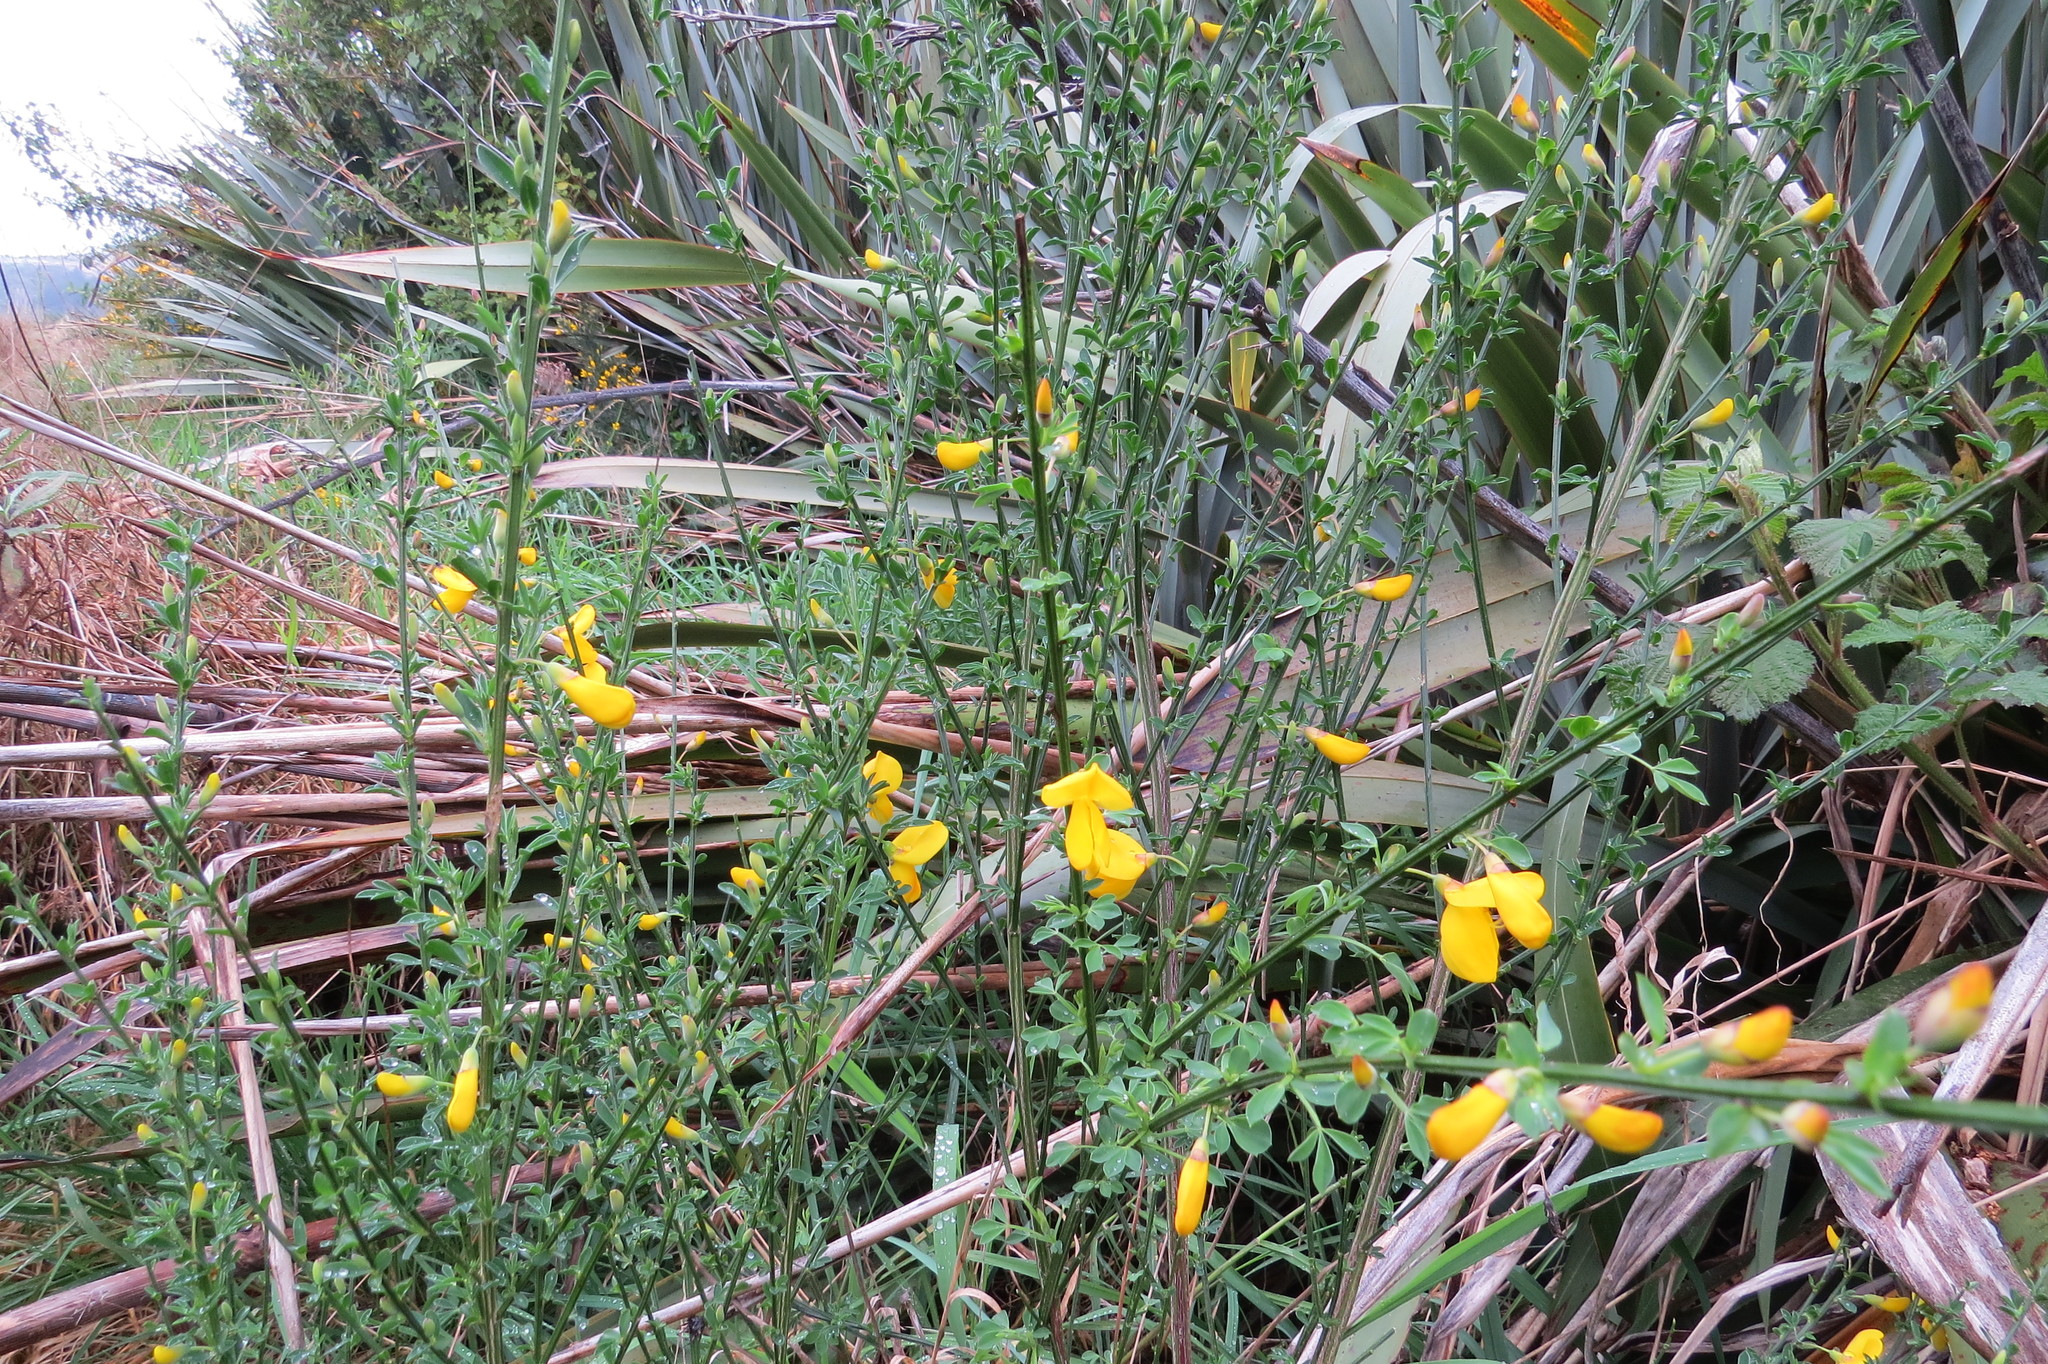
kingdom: Plantae
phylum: Tracheophyta
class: Magnoliopsida
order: Fabales
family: Fabaceae
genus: Cytisus
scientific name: Cytisus scoparius
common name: Scotch broom
